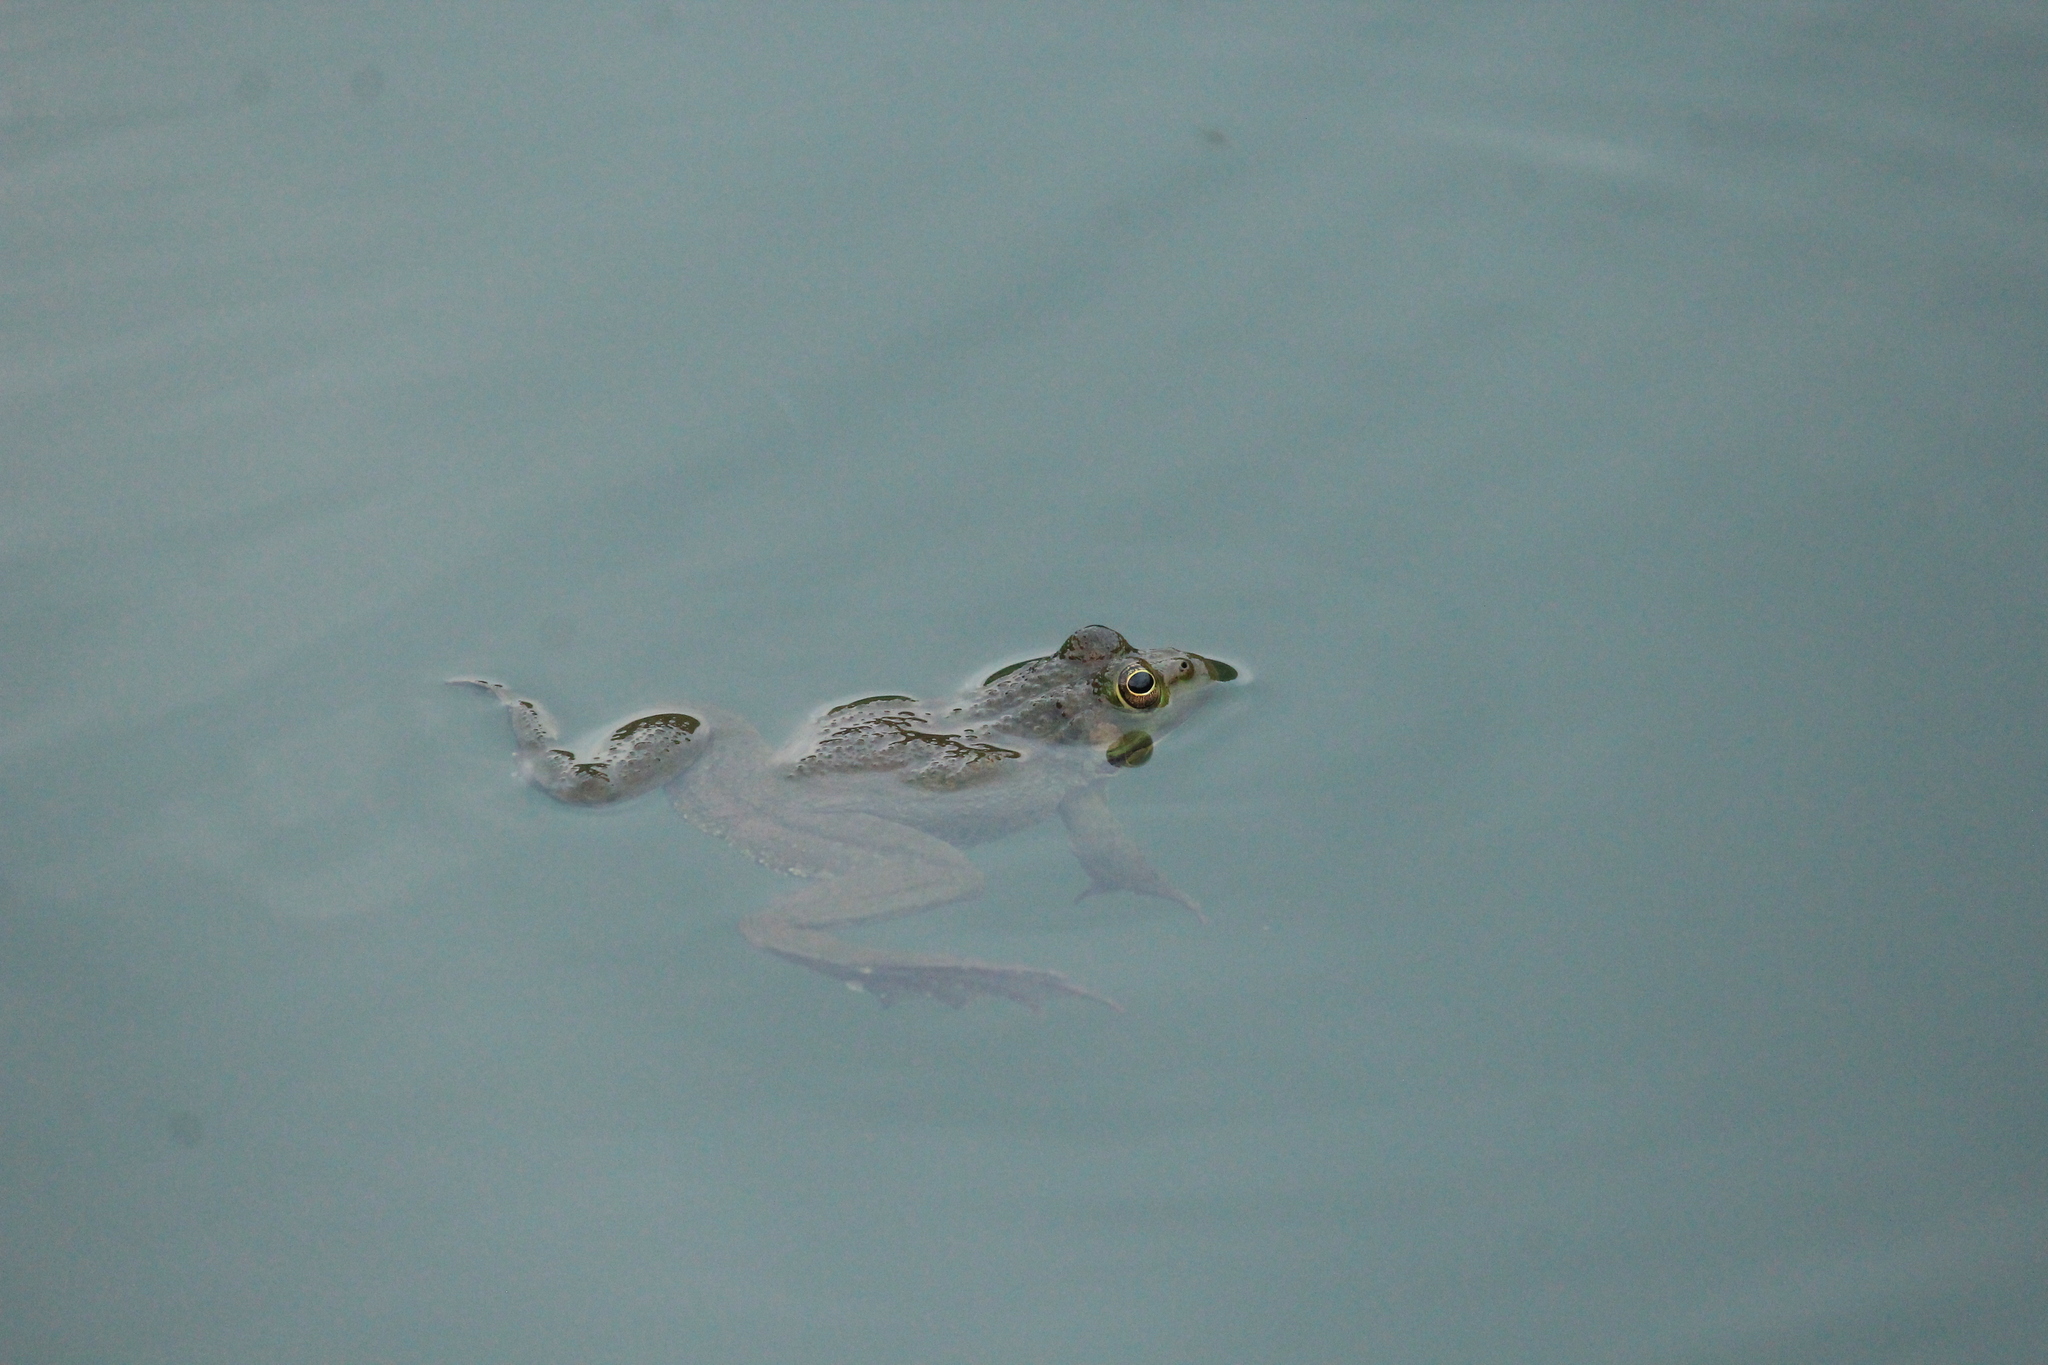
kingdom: Animalia
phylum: Chordata
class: Amphibia
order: Anura
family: Ranidae
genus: Pelophylax
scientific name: Pelophylax ridibundus
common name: Marsh frog
